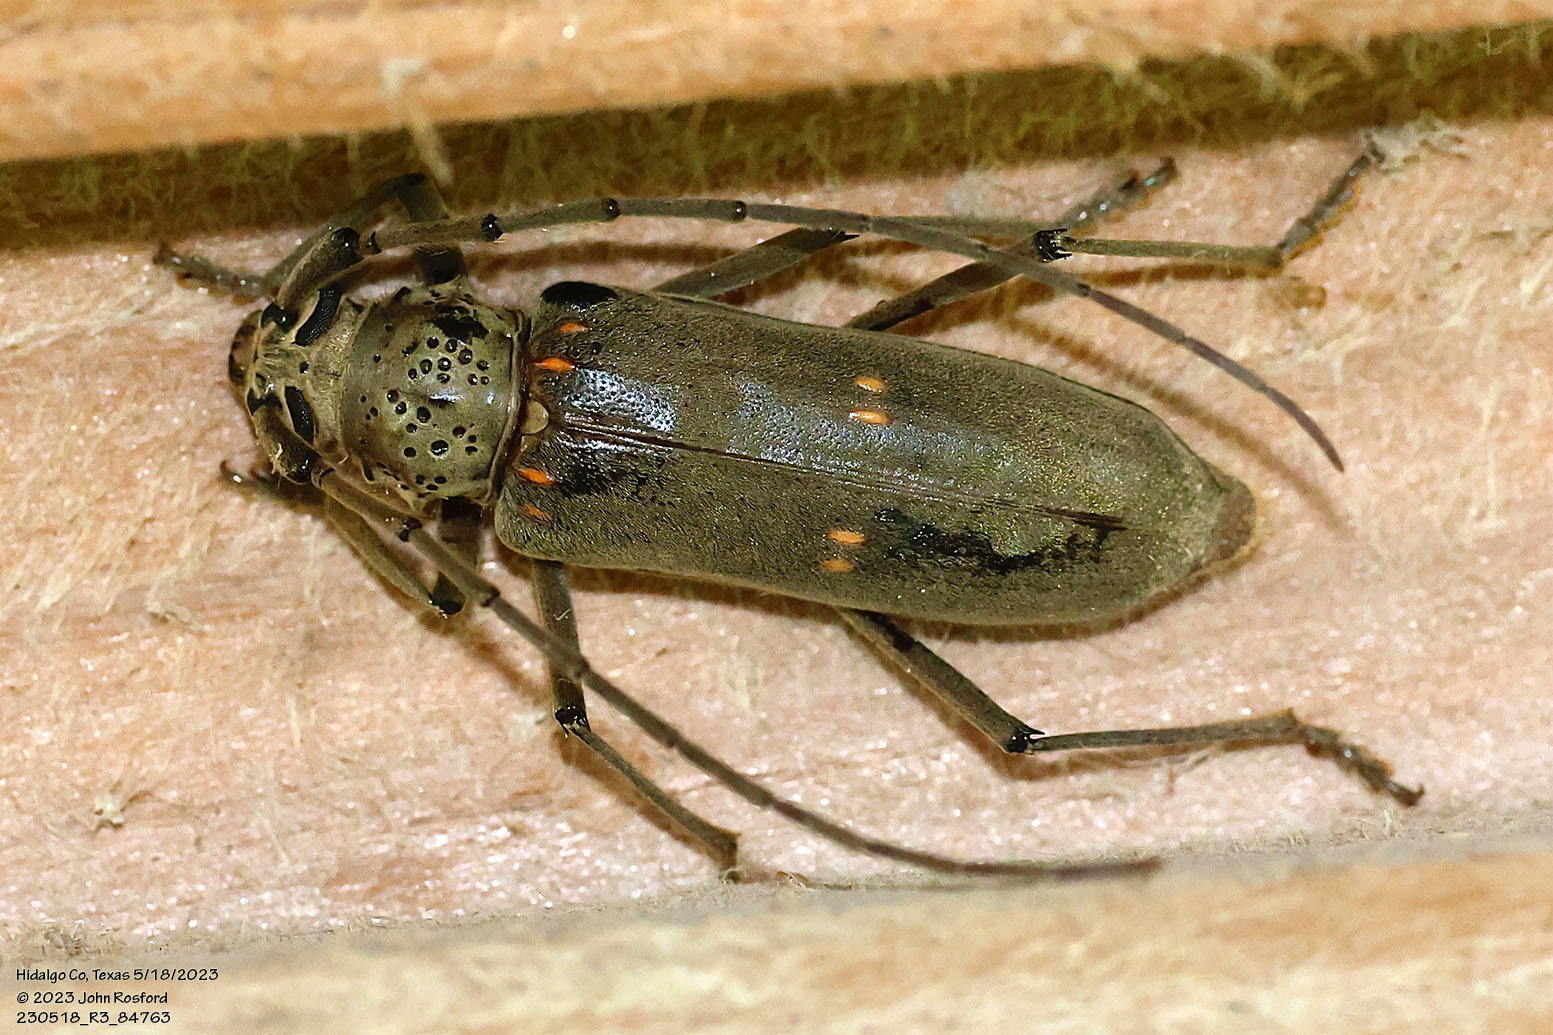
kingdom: Animalia
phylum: Arthropoda
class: Insecta
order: Coleoptera
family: Cerambycidae
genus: Susuacanga
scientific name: Susuacanga stigmatica
